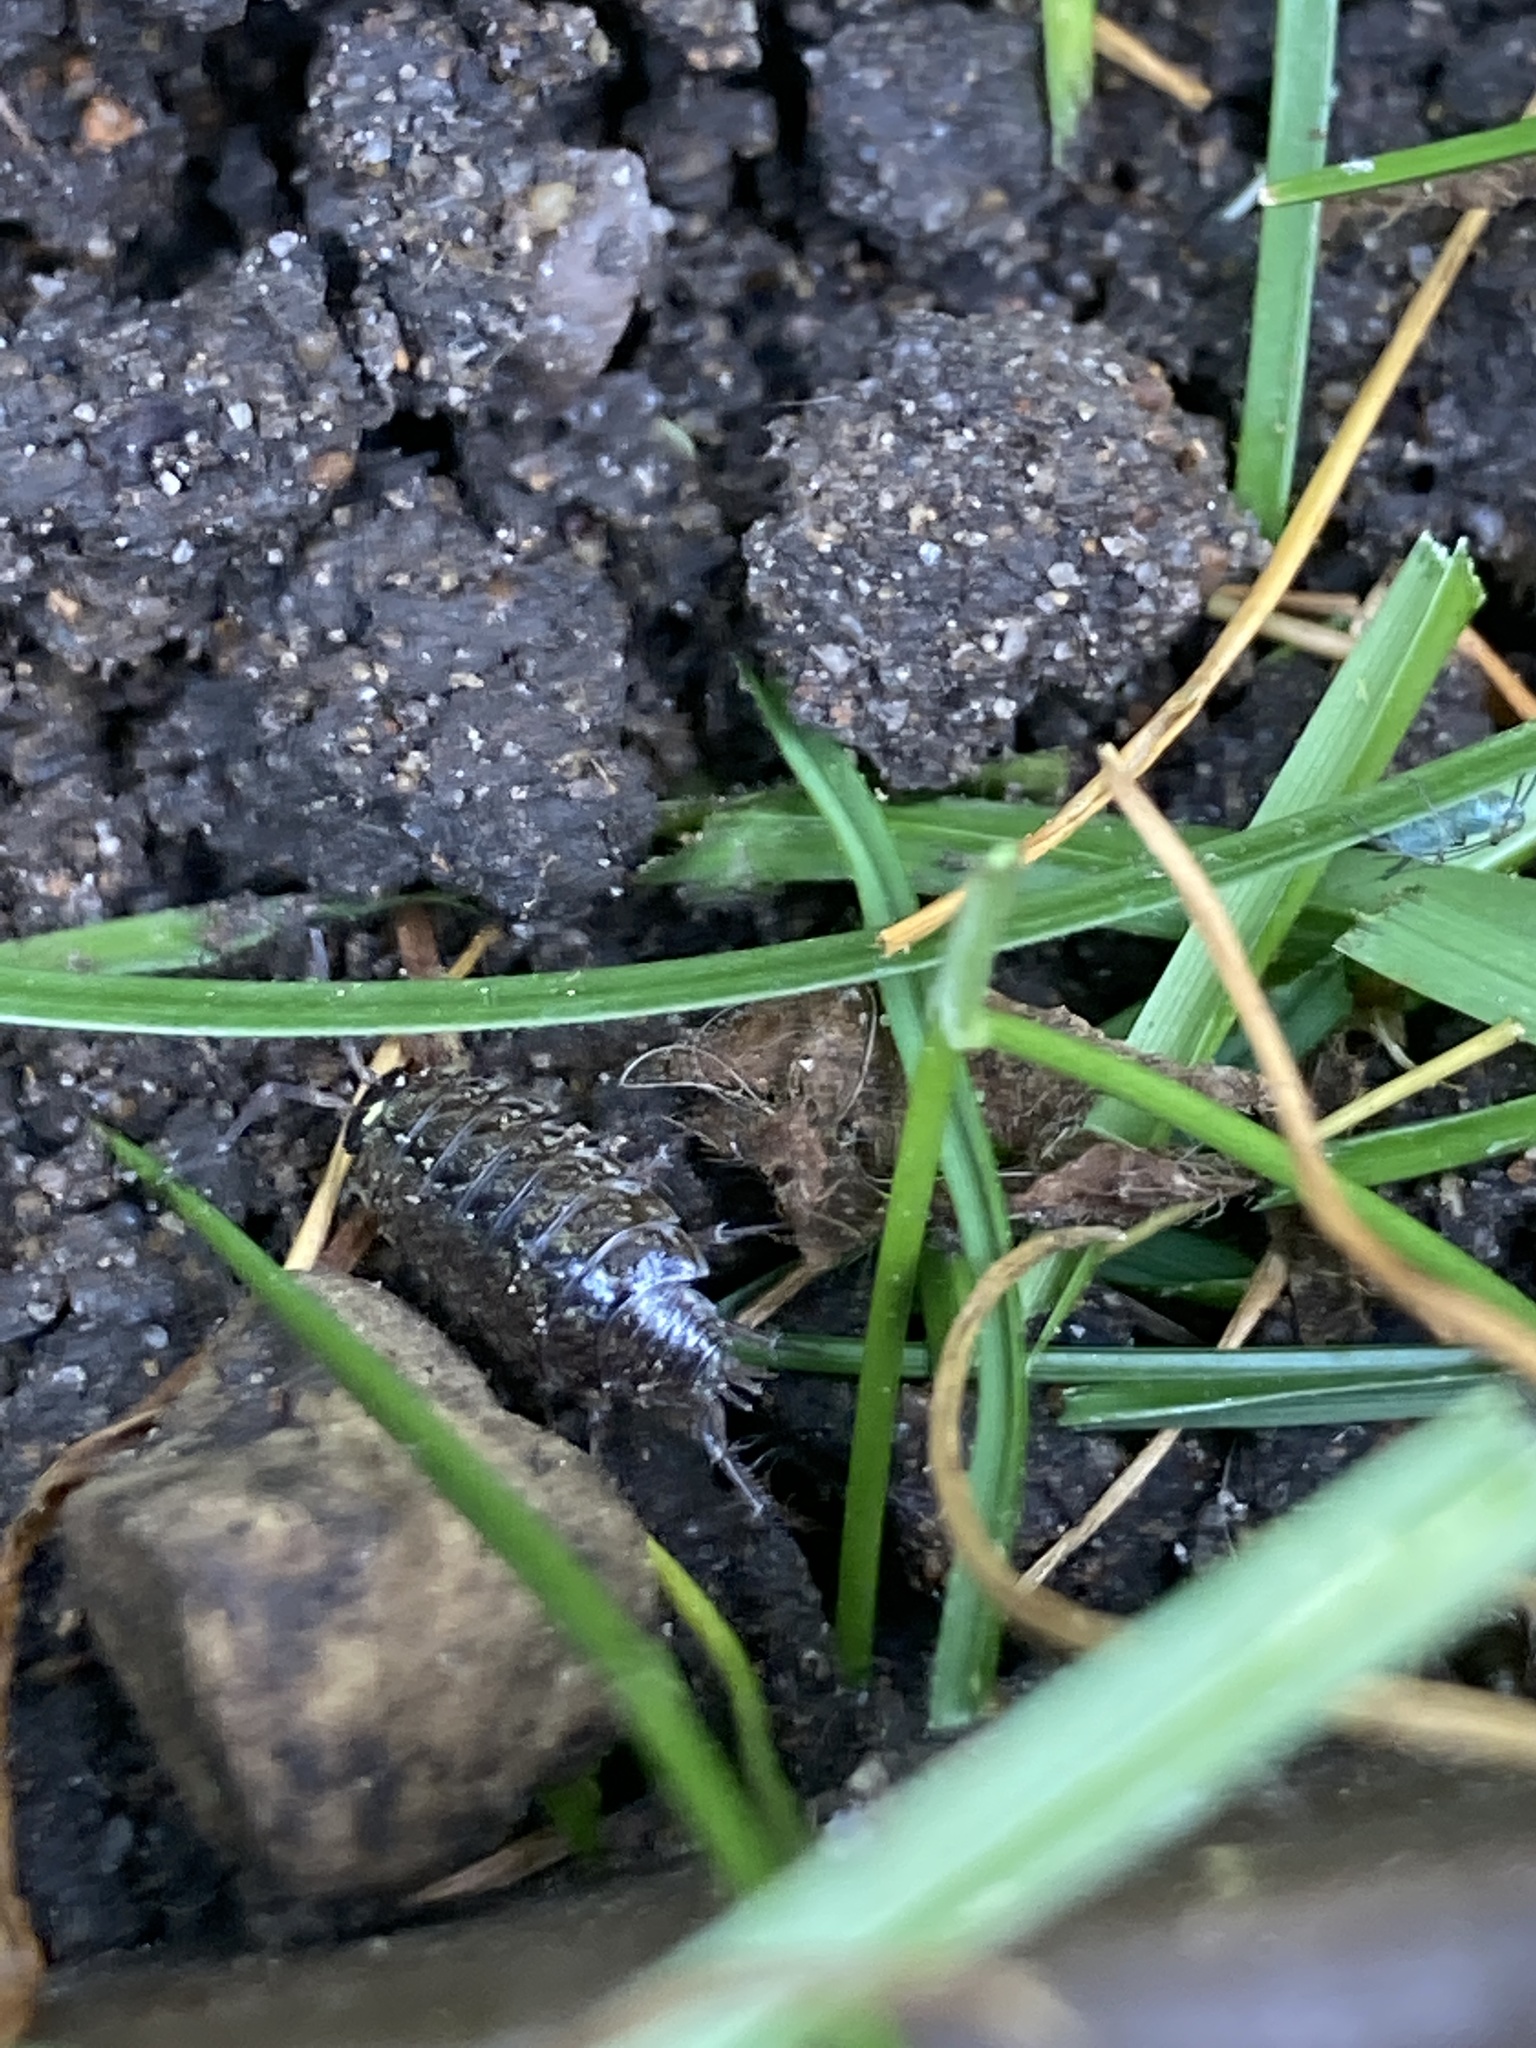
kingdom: Animalia
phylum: Arthropoda
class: Malacostraca
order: Isopoda
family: Philosciidae
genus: Philoscia
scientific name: Philoscia muscorum
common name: Common striped woodlouse
